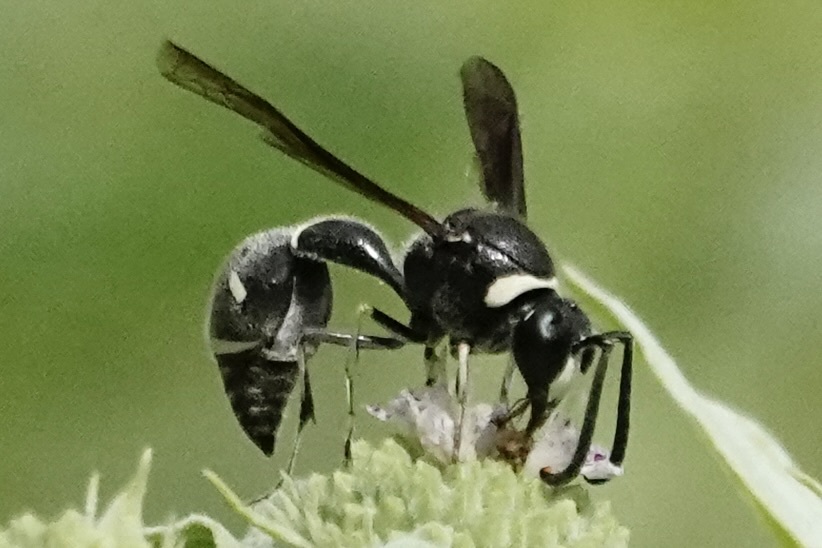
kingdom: Animalia
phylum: Arthropoda
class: Insecta
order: Hymenoptera
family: Vespidae
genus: Eumenes
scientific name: Eumenes fraternus
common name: Fraternal potter wasp
